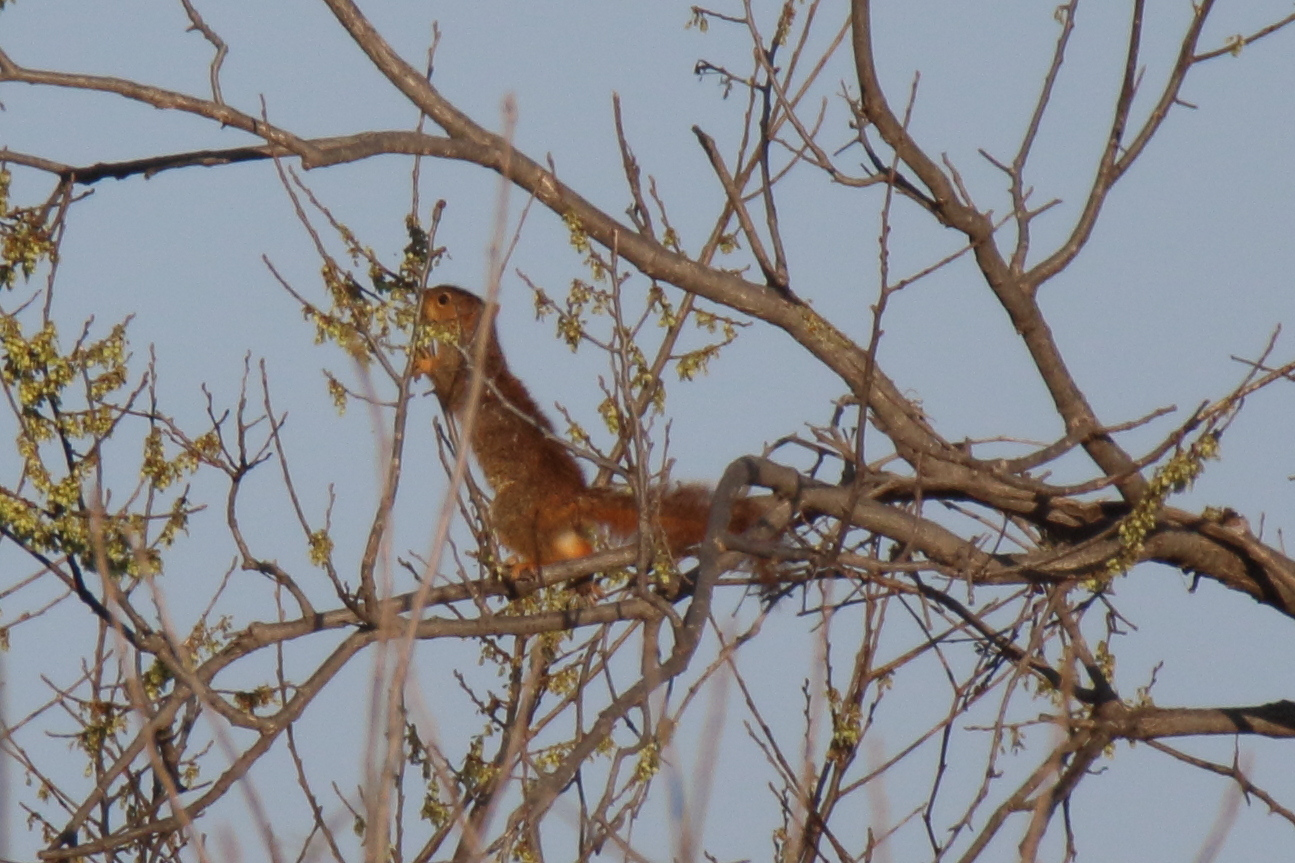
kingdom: Animalia
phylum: Chordata
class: Mammalia
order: Rodentia
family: Sciuridae
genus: Sciurus
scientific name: Sciurus niger
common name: Fox squirrel
